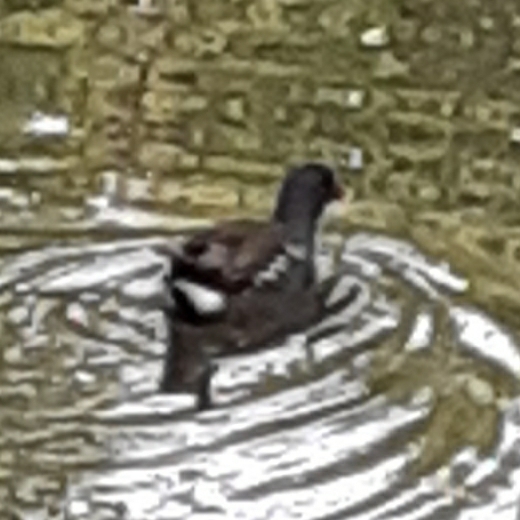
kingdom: Animalia
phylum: Chordata
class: Aves
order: Gruiformes
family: Rallidae
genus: Gallinula
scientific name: Gallinula chloropus
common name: Common moorhen
